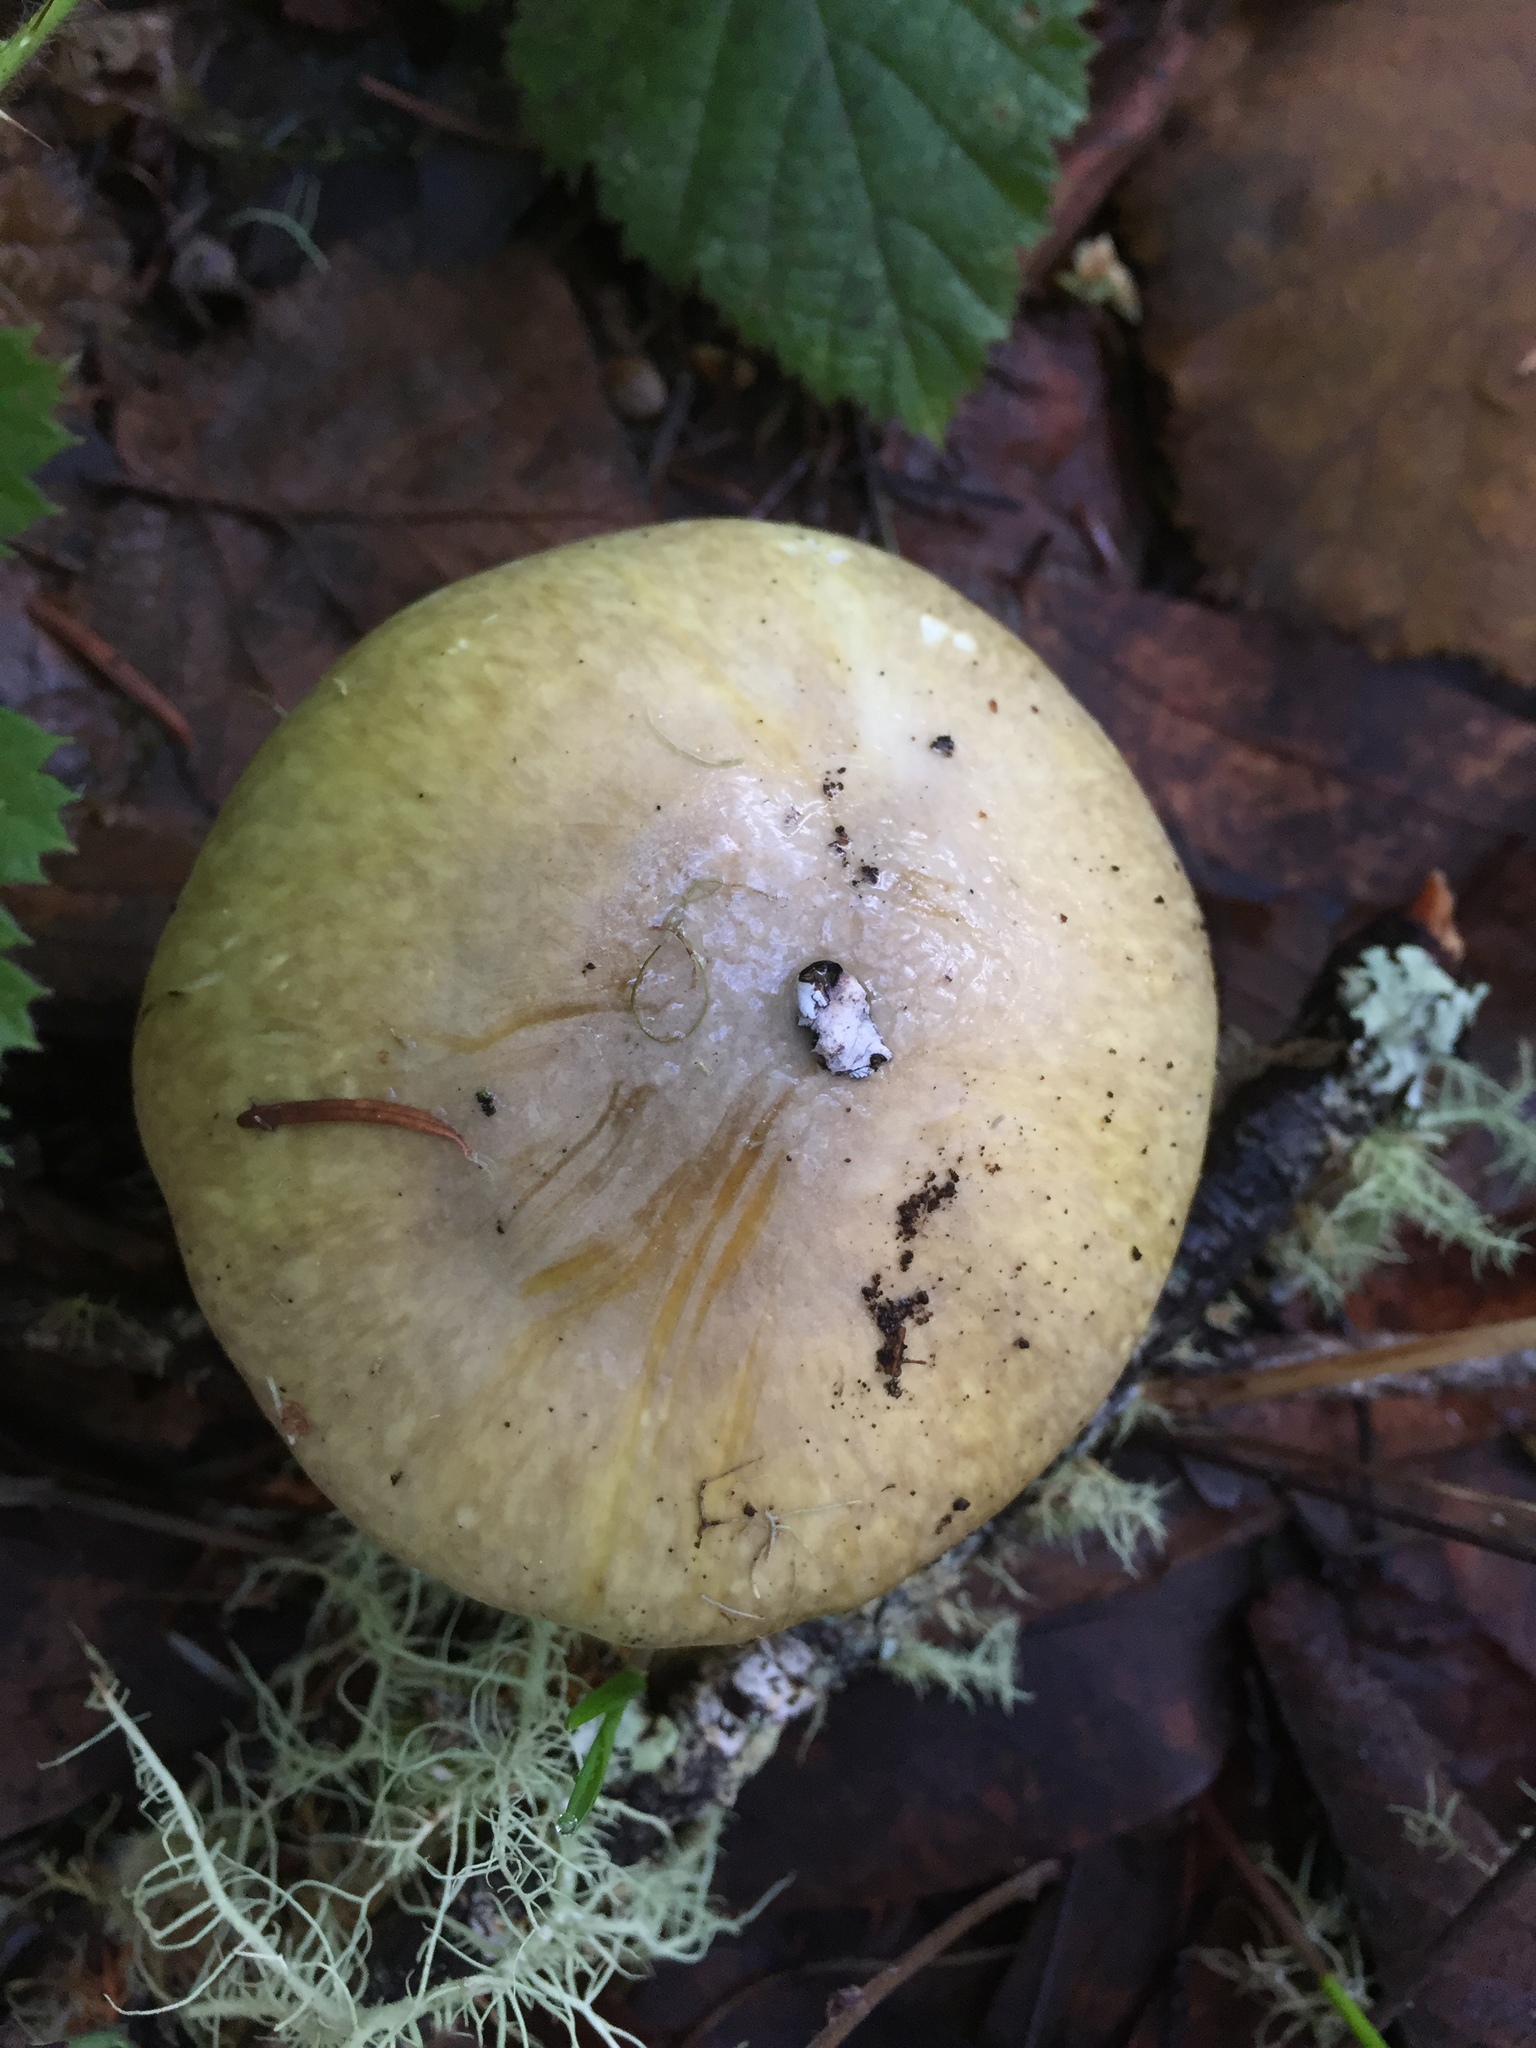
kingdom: Fungi
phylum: Basidiomycota
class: Agaricomycetes
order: Agaricales
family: Amanitaceae
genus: Amanita
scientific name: Amanita phalloides
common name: Death cap
